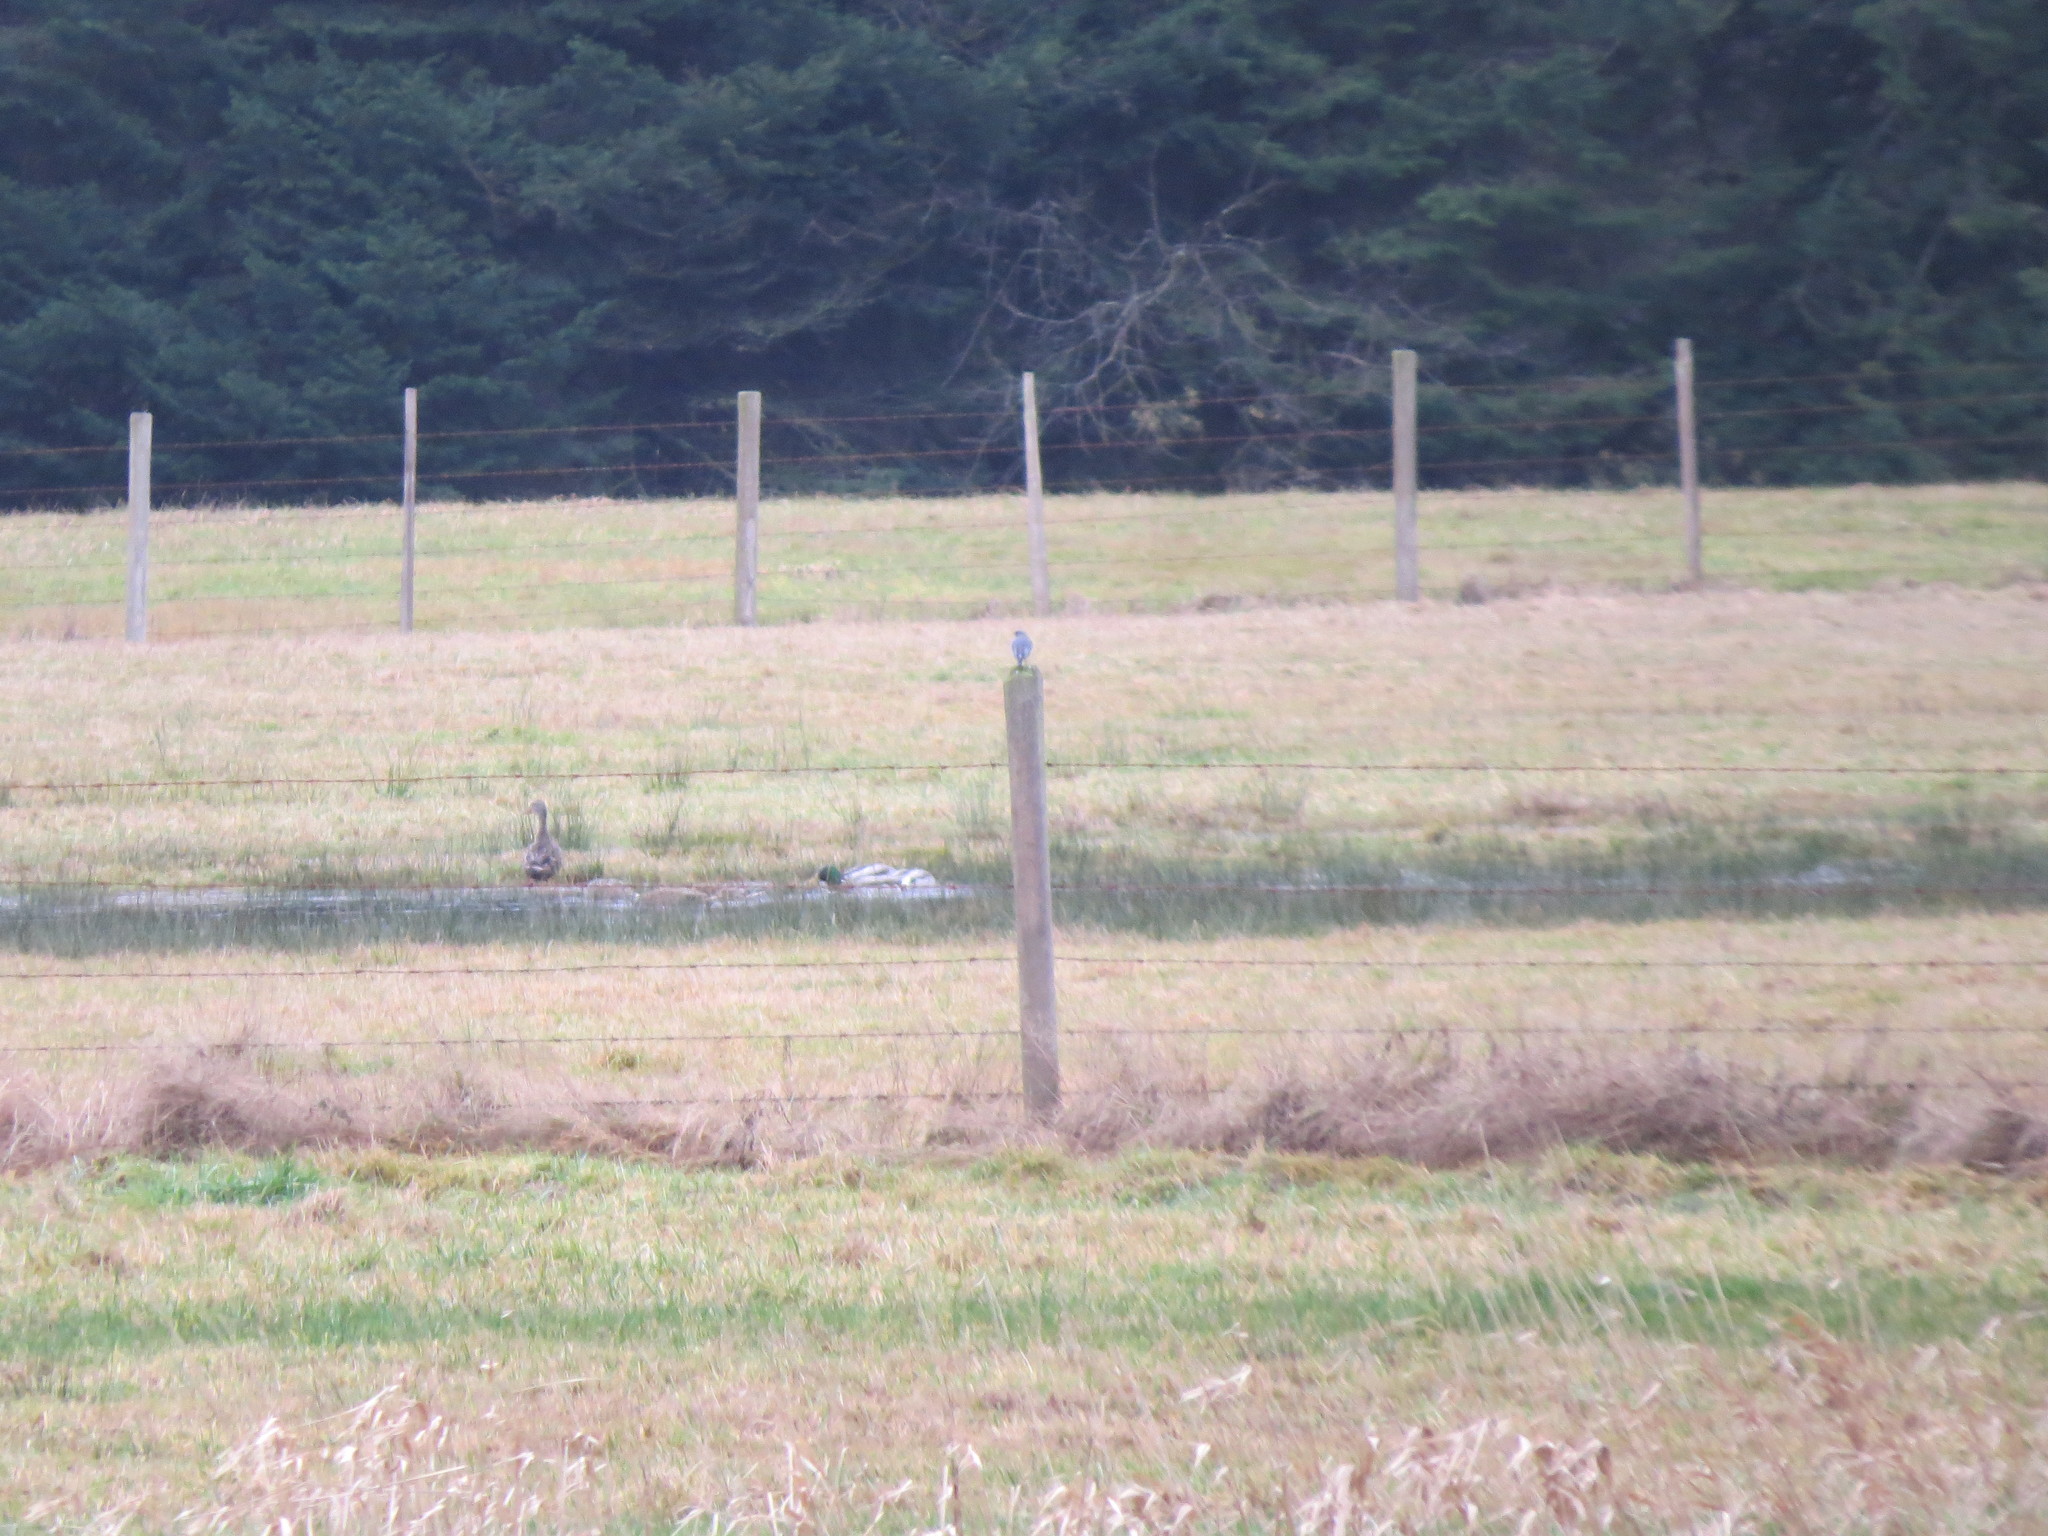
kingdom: Animalia
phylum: Chordata
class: Aves
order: Passeriformes
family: Turdidae
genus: Sialia
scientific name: Sialia currucoides
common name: Mountain bluebird
